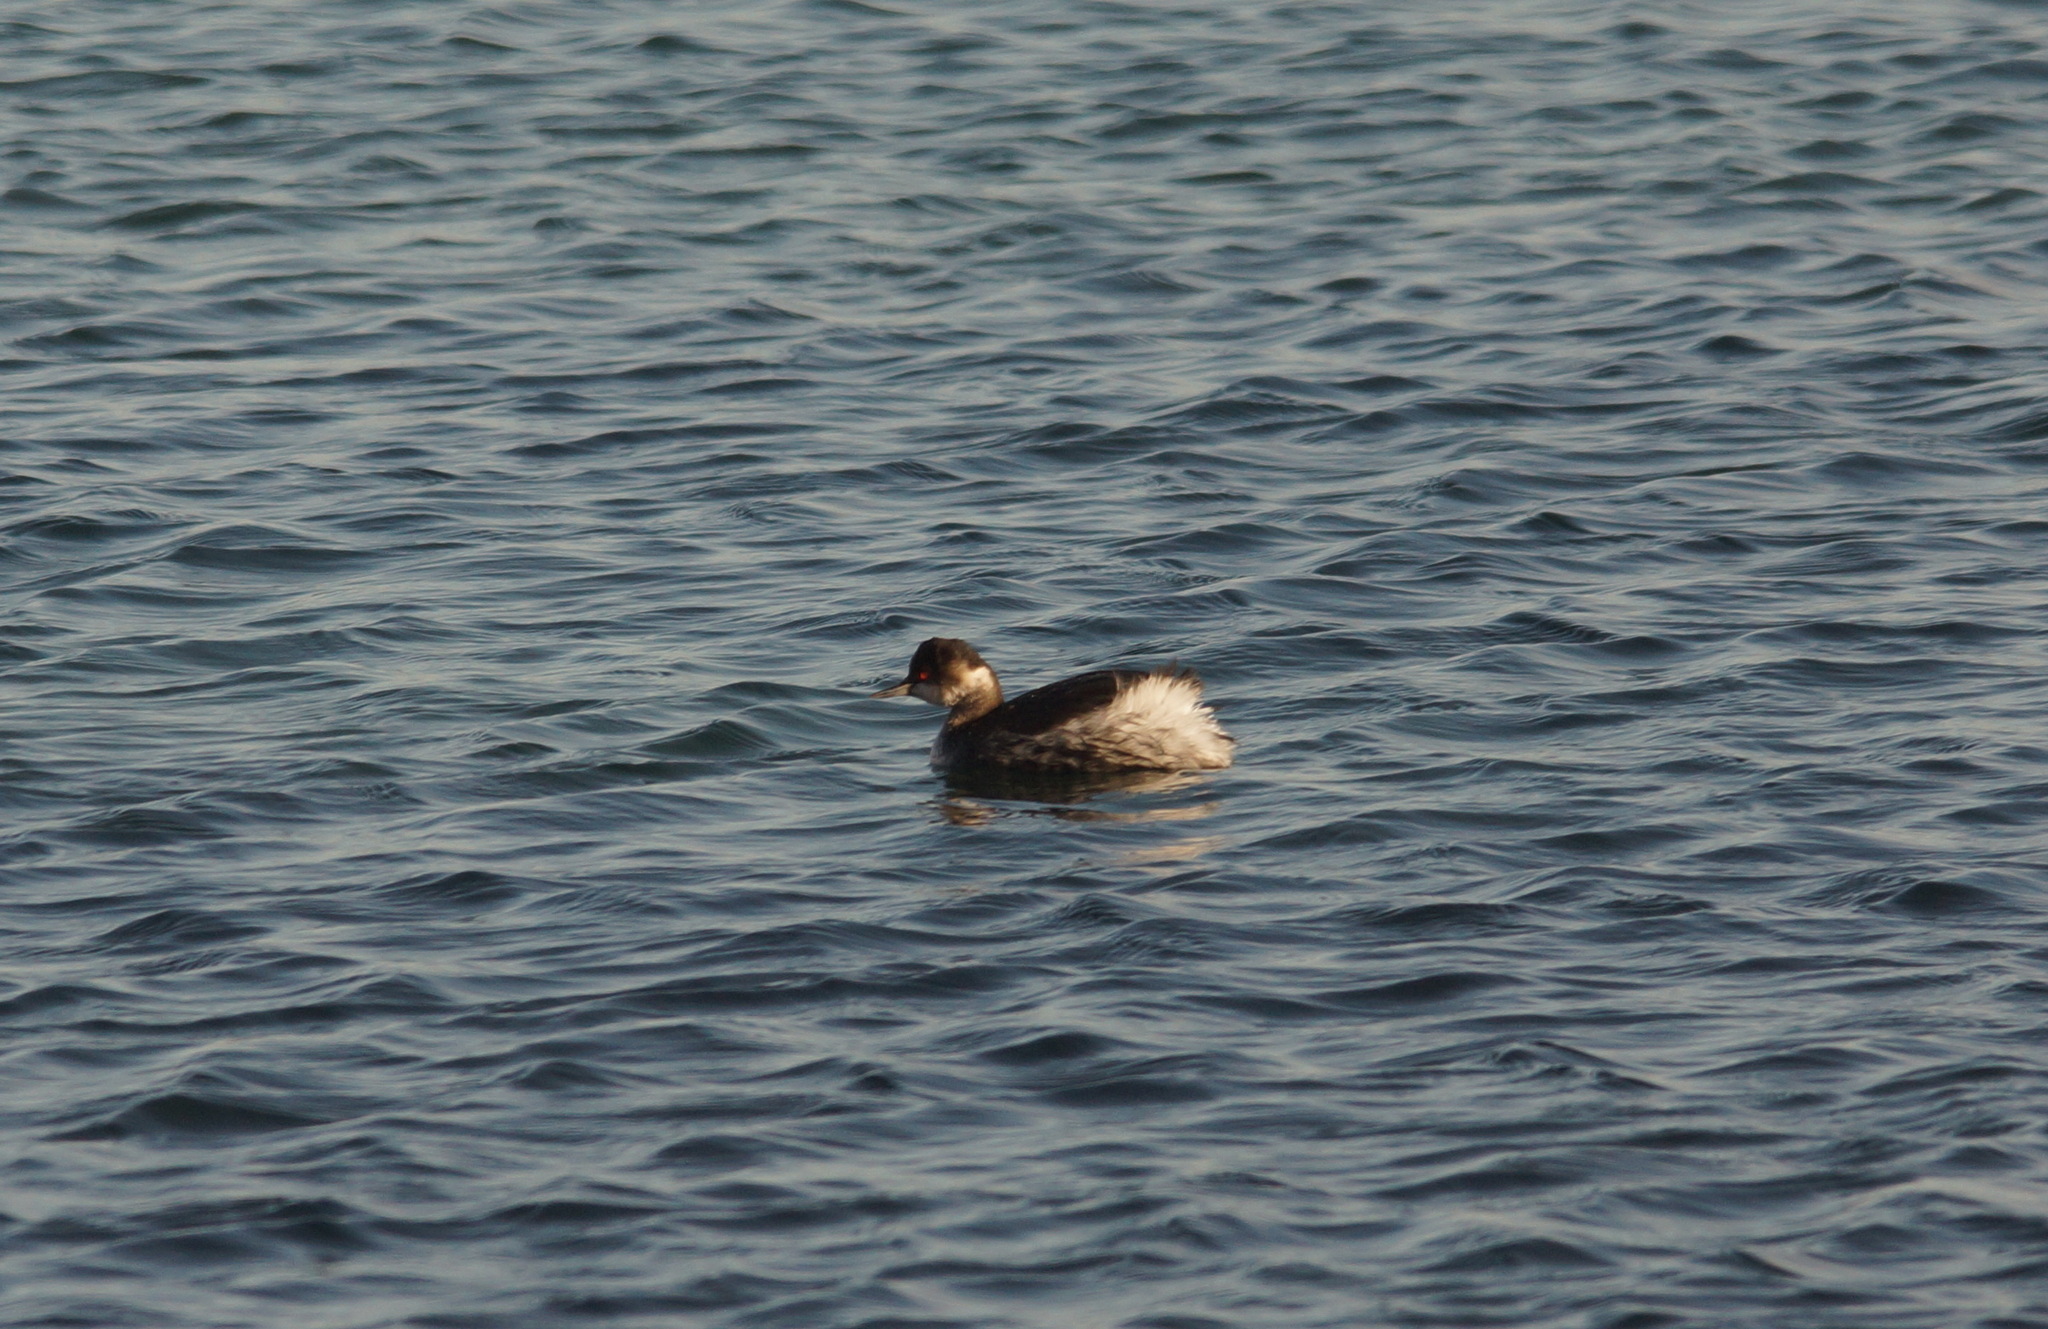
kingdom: Animalia
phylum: Chordata
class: Aves
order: Podicipediformes
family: Podicipedidae
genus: Podiceps
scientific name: Podiceps nigricollis
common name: Black-necked grebe
